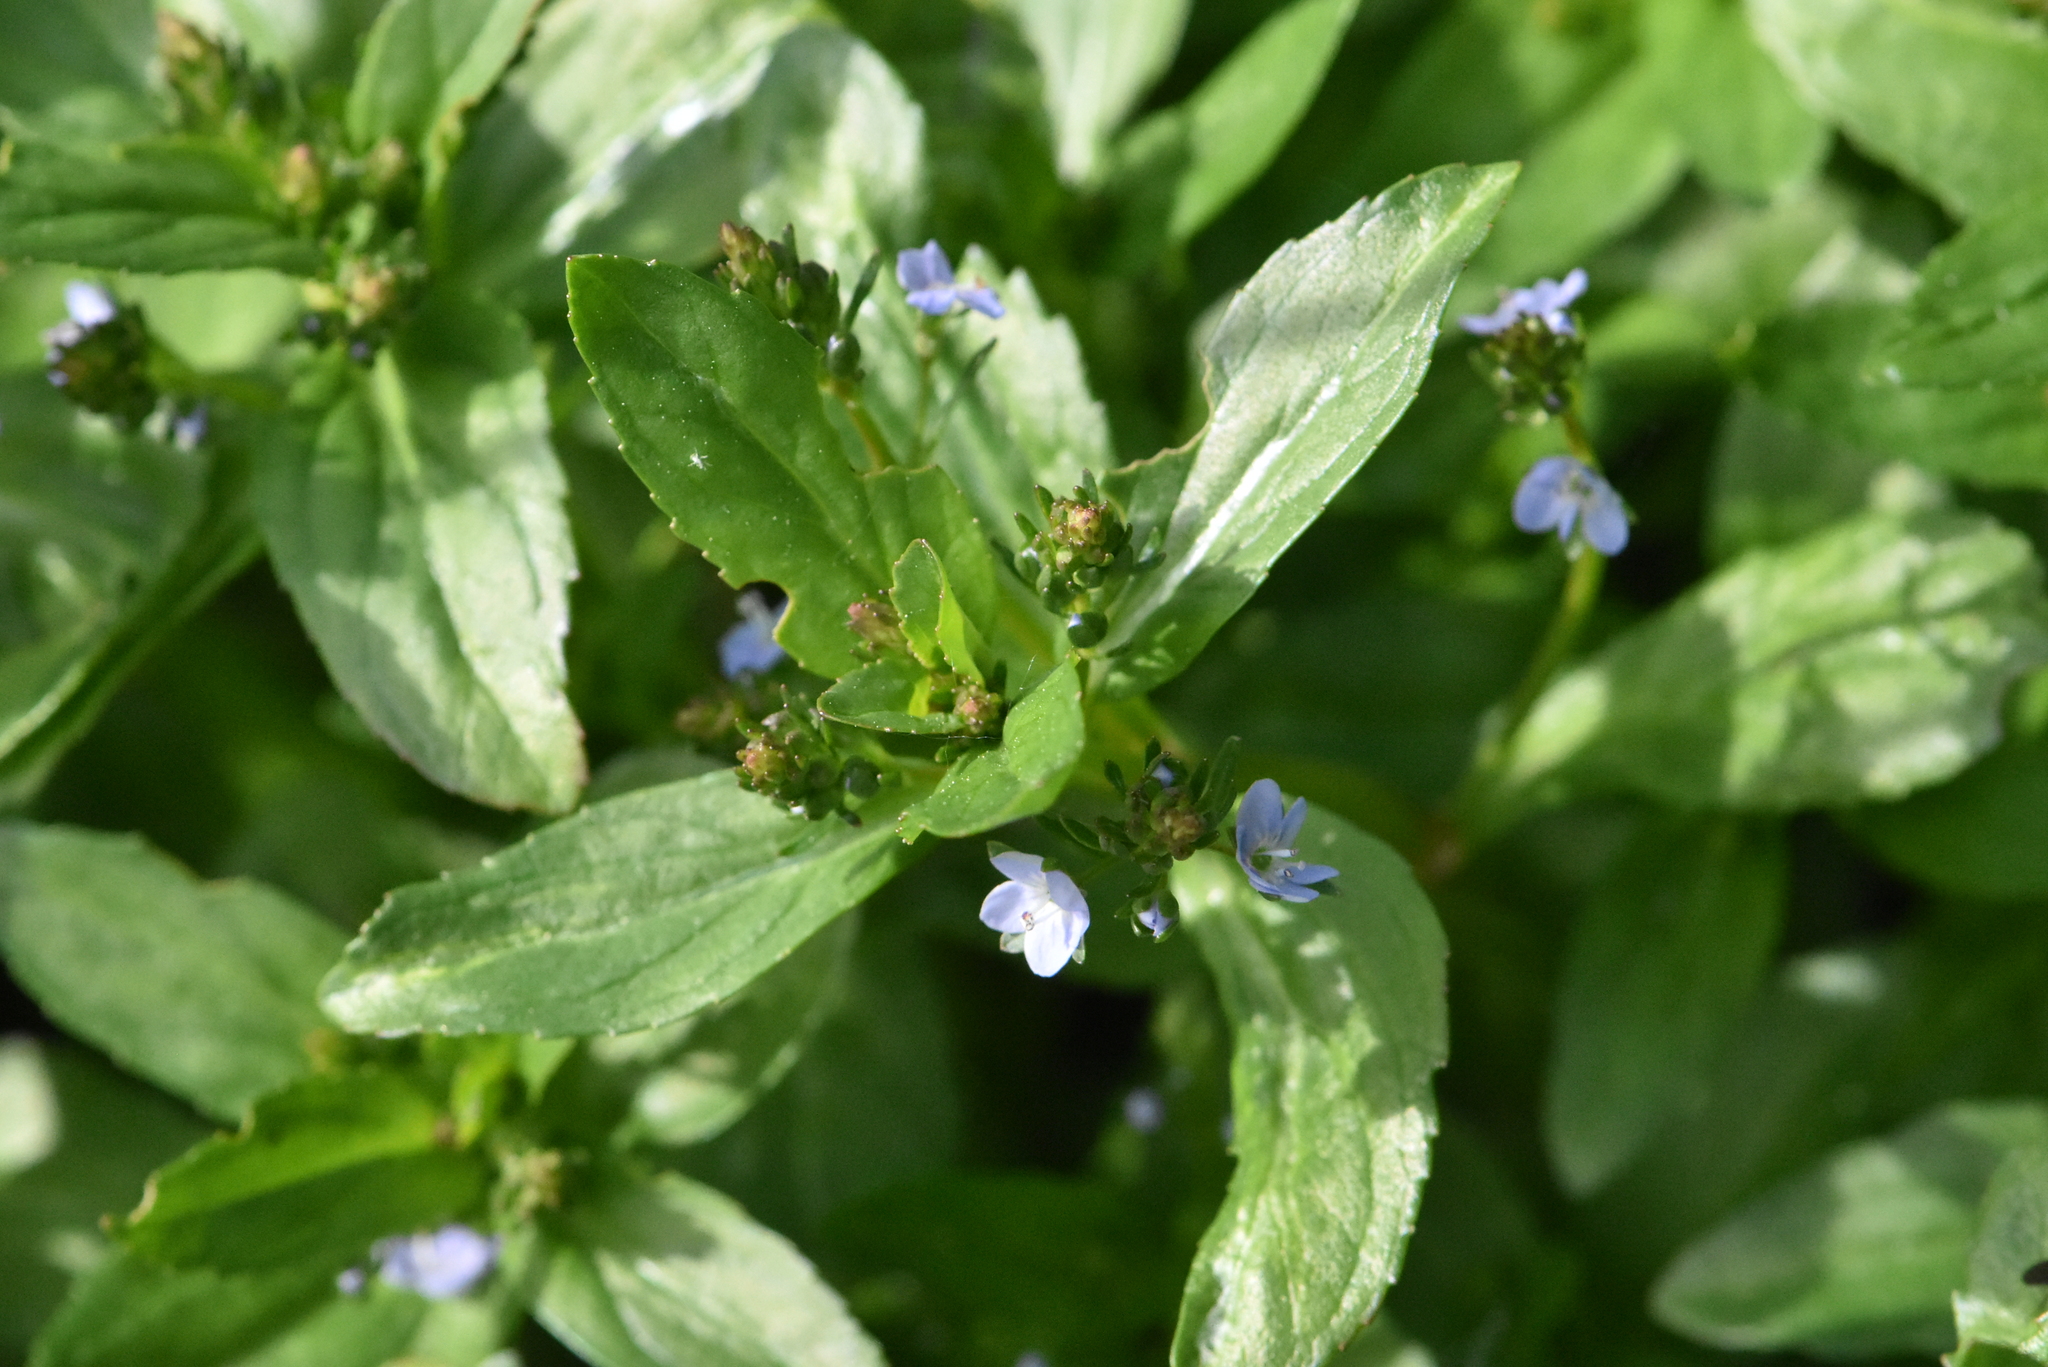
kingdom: Plantae
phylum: Tracheophyta
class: Magnoliopsida
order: Lamiales
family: Plantaginaceae
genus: Veronica
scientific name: Veronica beccabunga
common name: Brooklime
